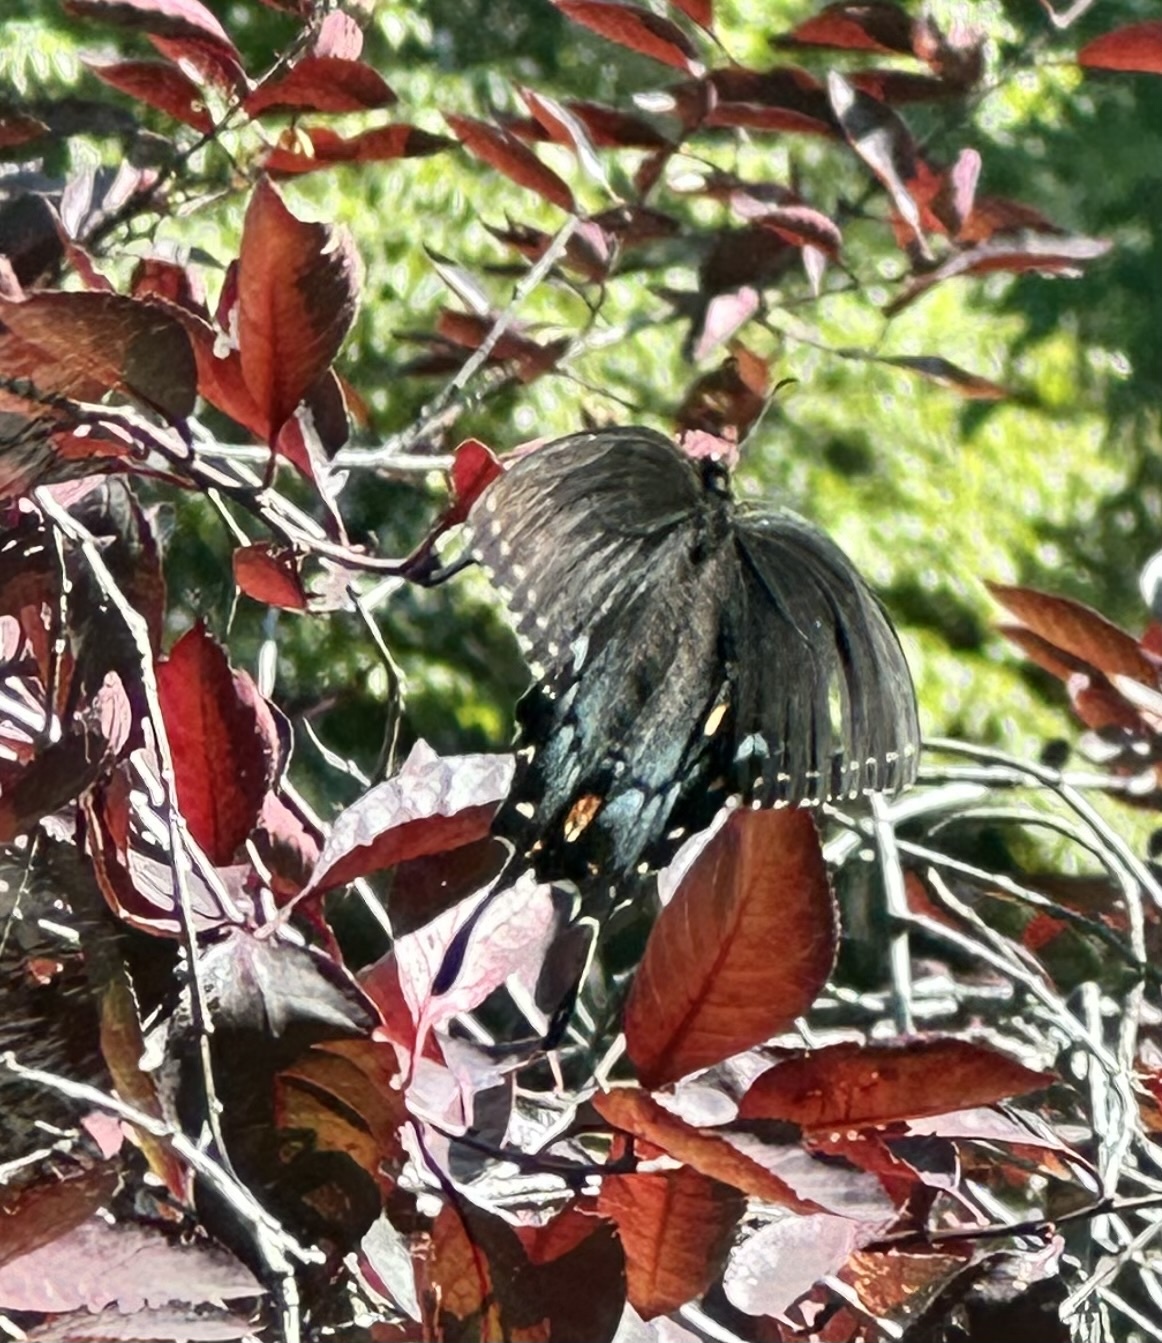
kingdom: Animalia
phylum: Arthropoda
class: Insecta
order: Lepidoptera
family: Papilionidae
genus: Papilio
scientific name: Papilio glaucus
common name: Tiger swallowtail
